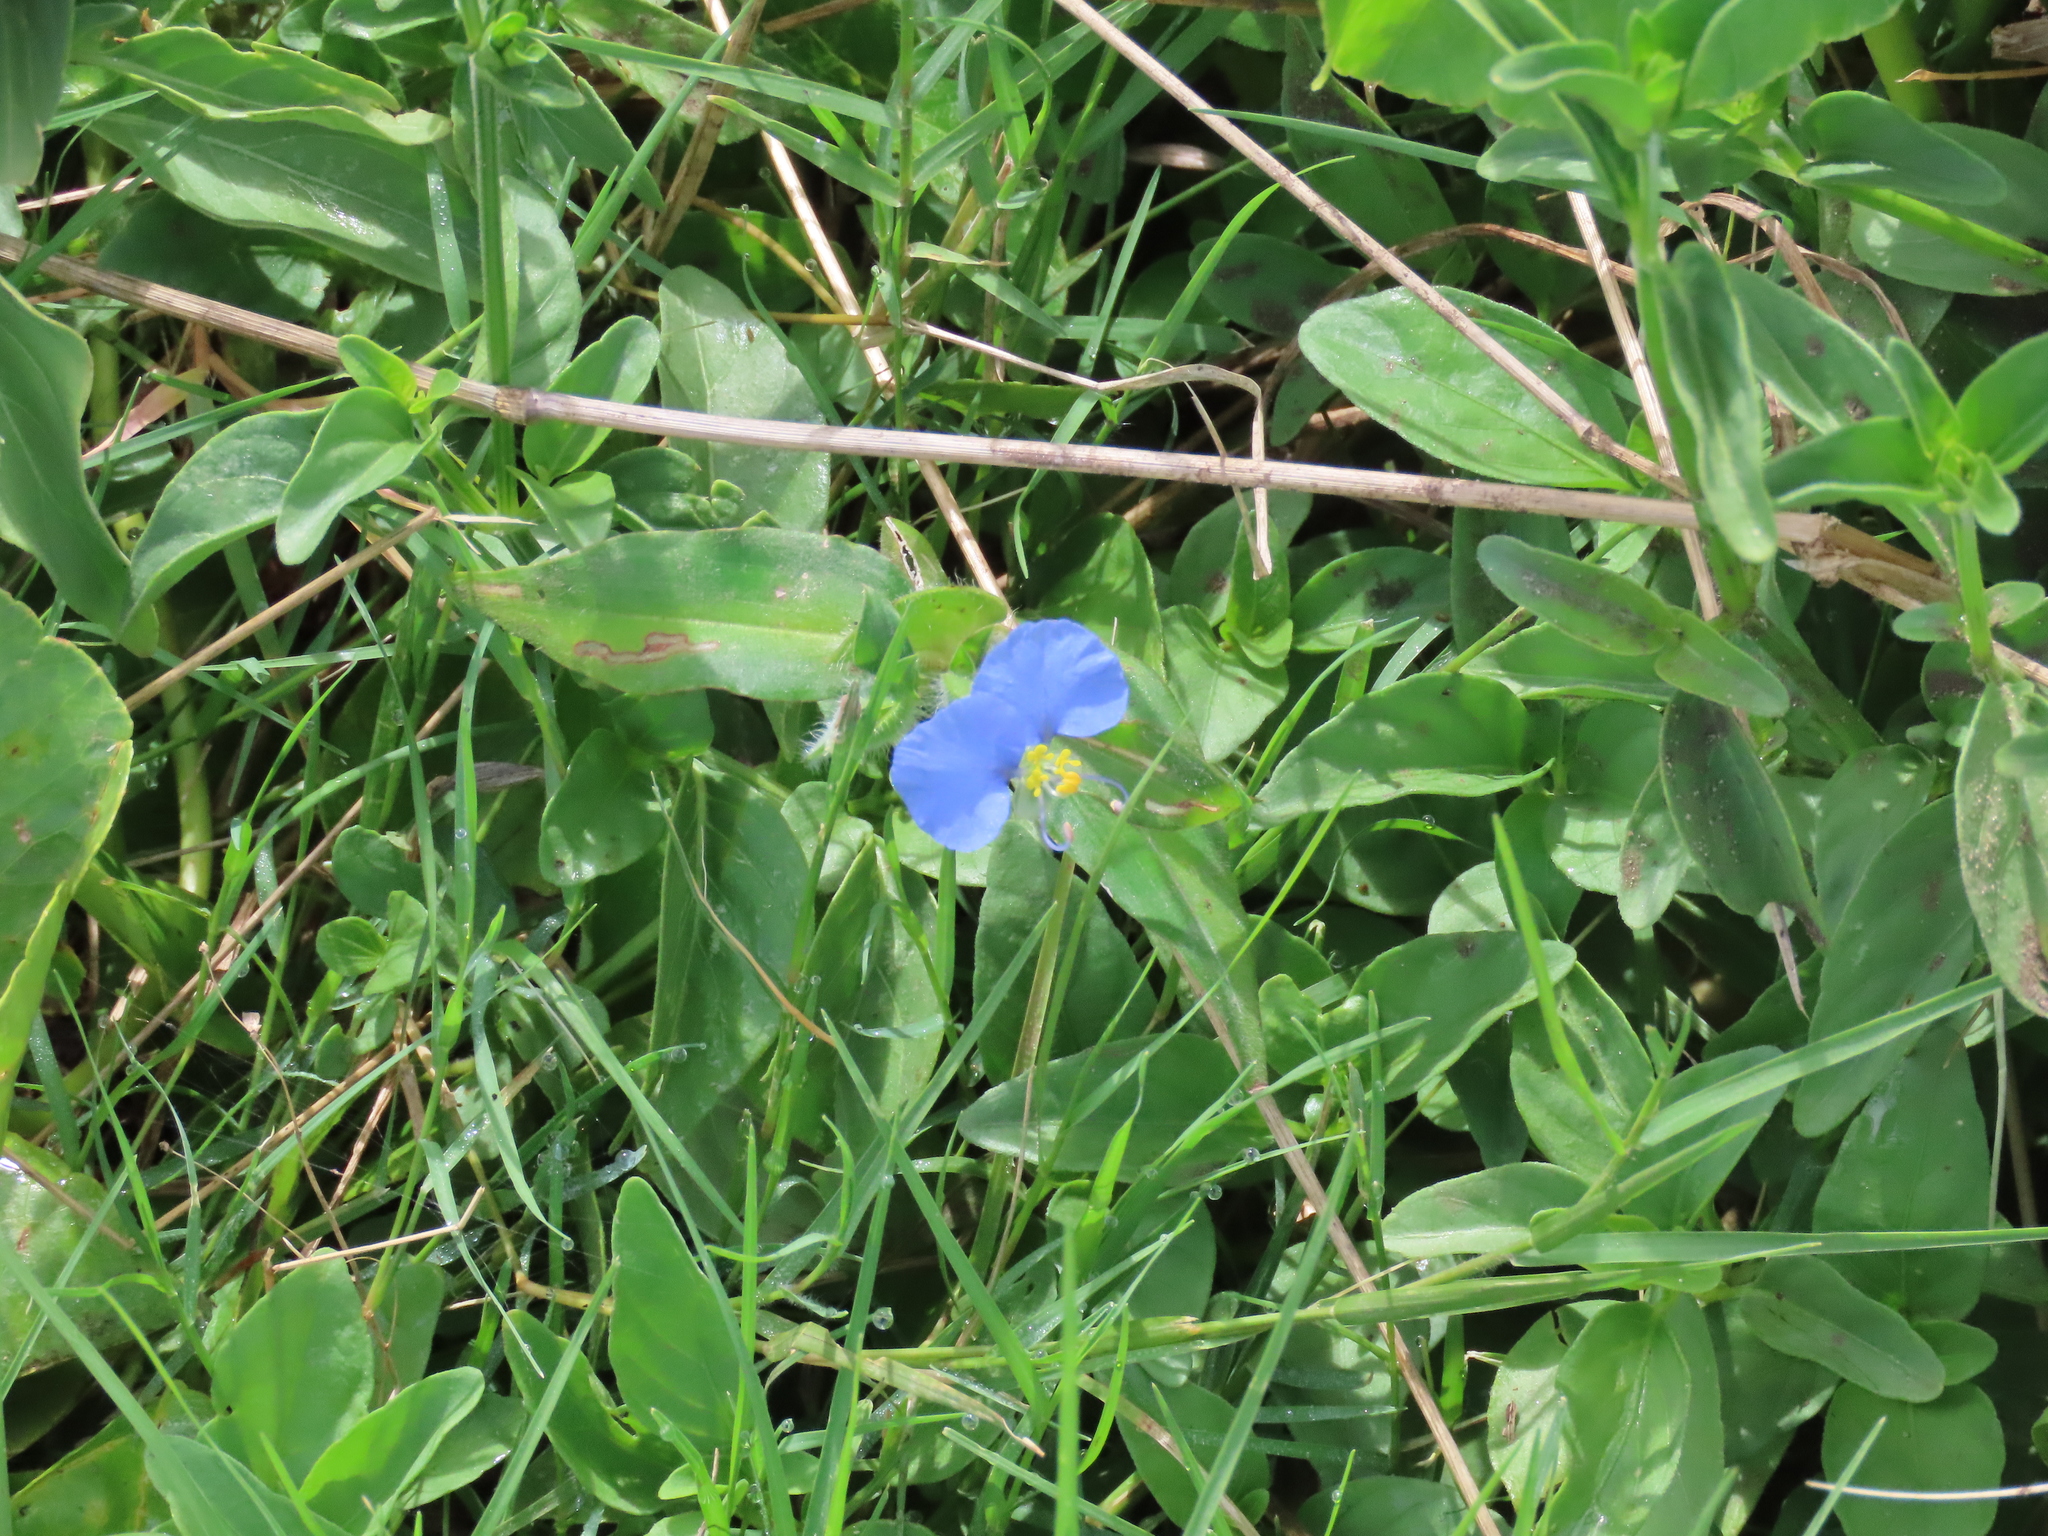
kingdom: Plantae
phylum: Tracheophyta
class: Liliopsida
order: Commelinales
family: Commelinaceae
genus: Commelina
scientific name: Commelina erecta
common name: Blousel blommetjie
